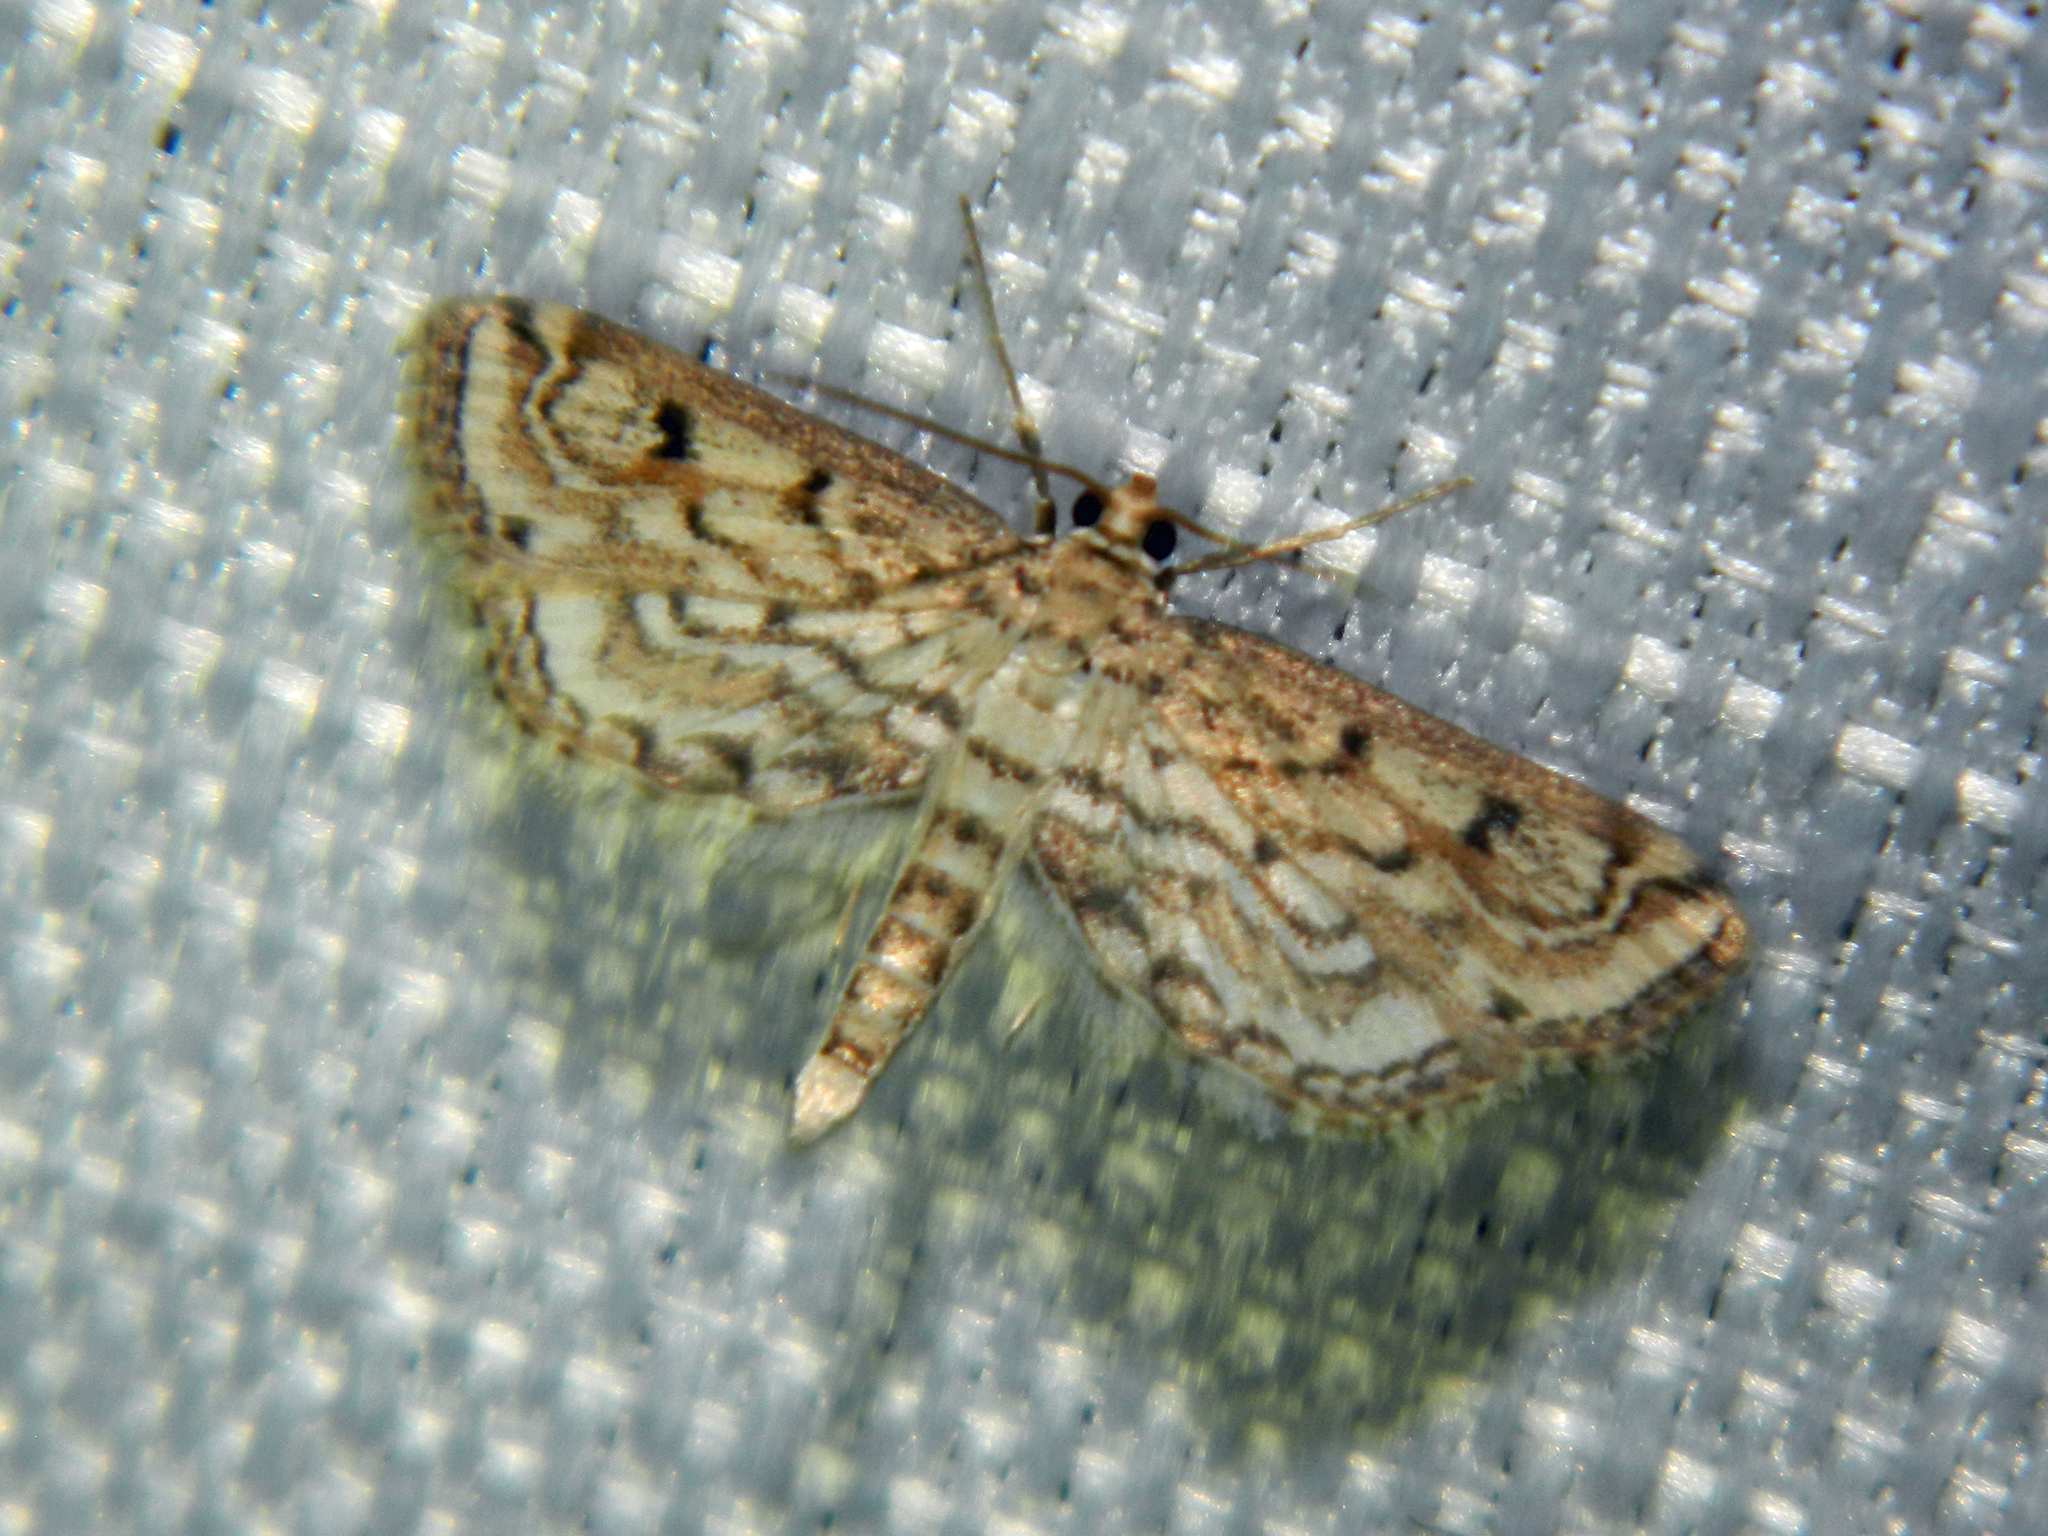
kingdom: Animalia
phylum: Arthropoda
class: Insecta
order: Lepidoptera
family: Crambidae
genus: Parapoynx
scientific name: Parapoynx allionealis
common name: Bladderwort casemaker
